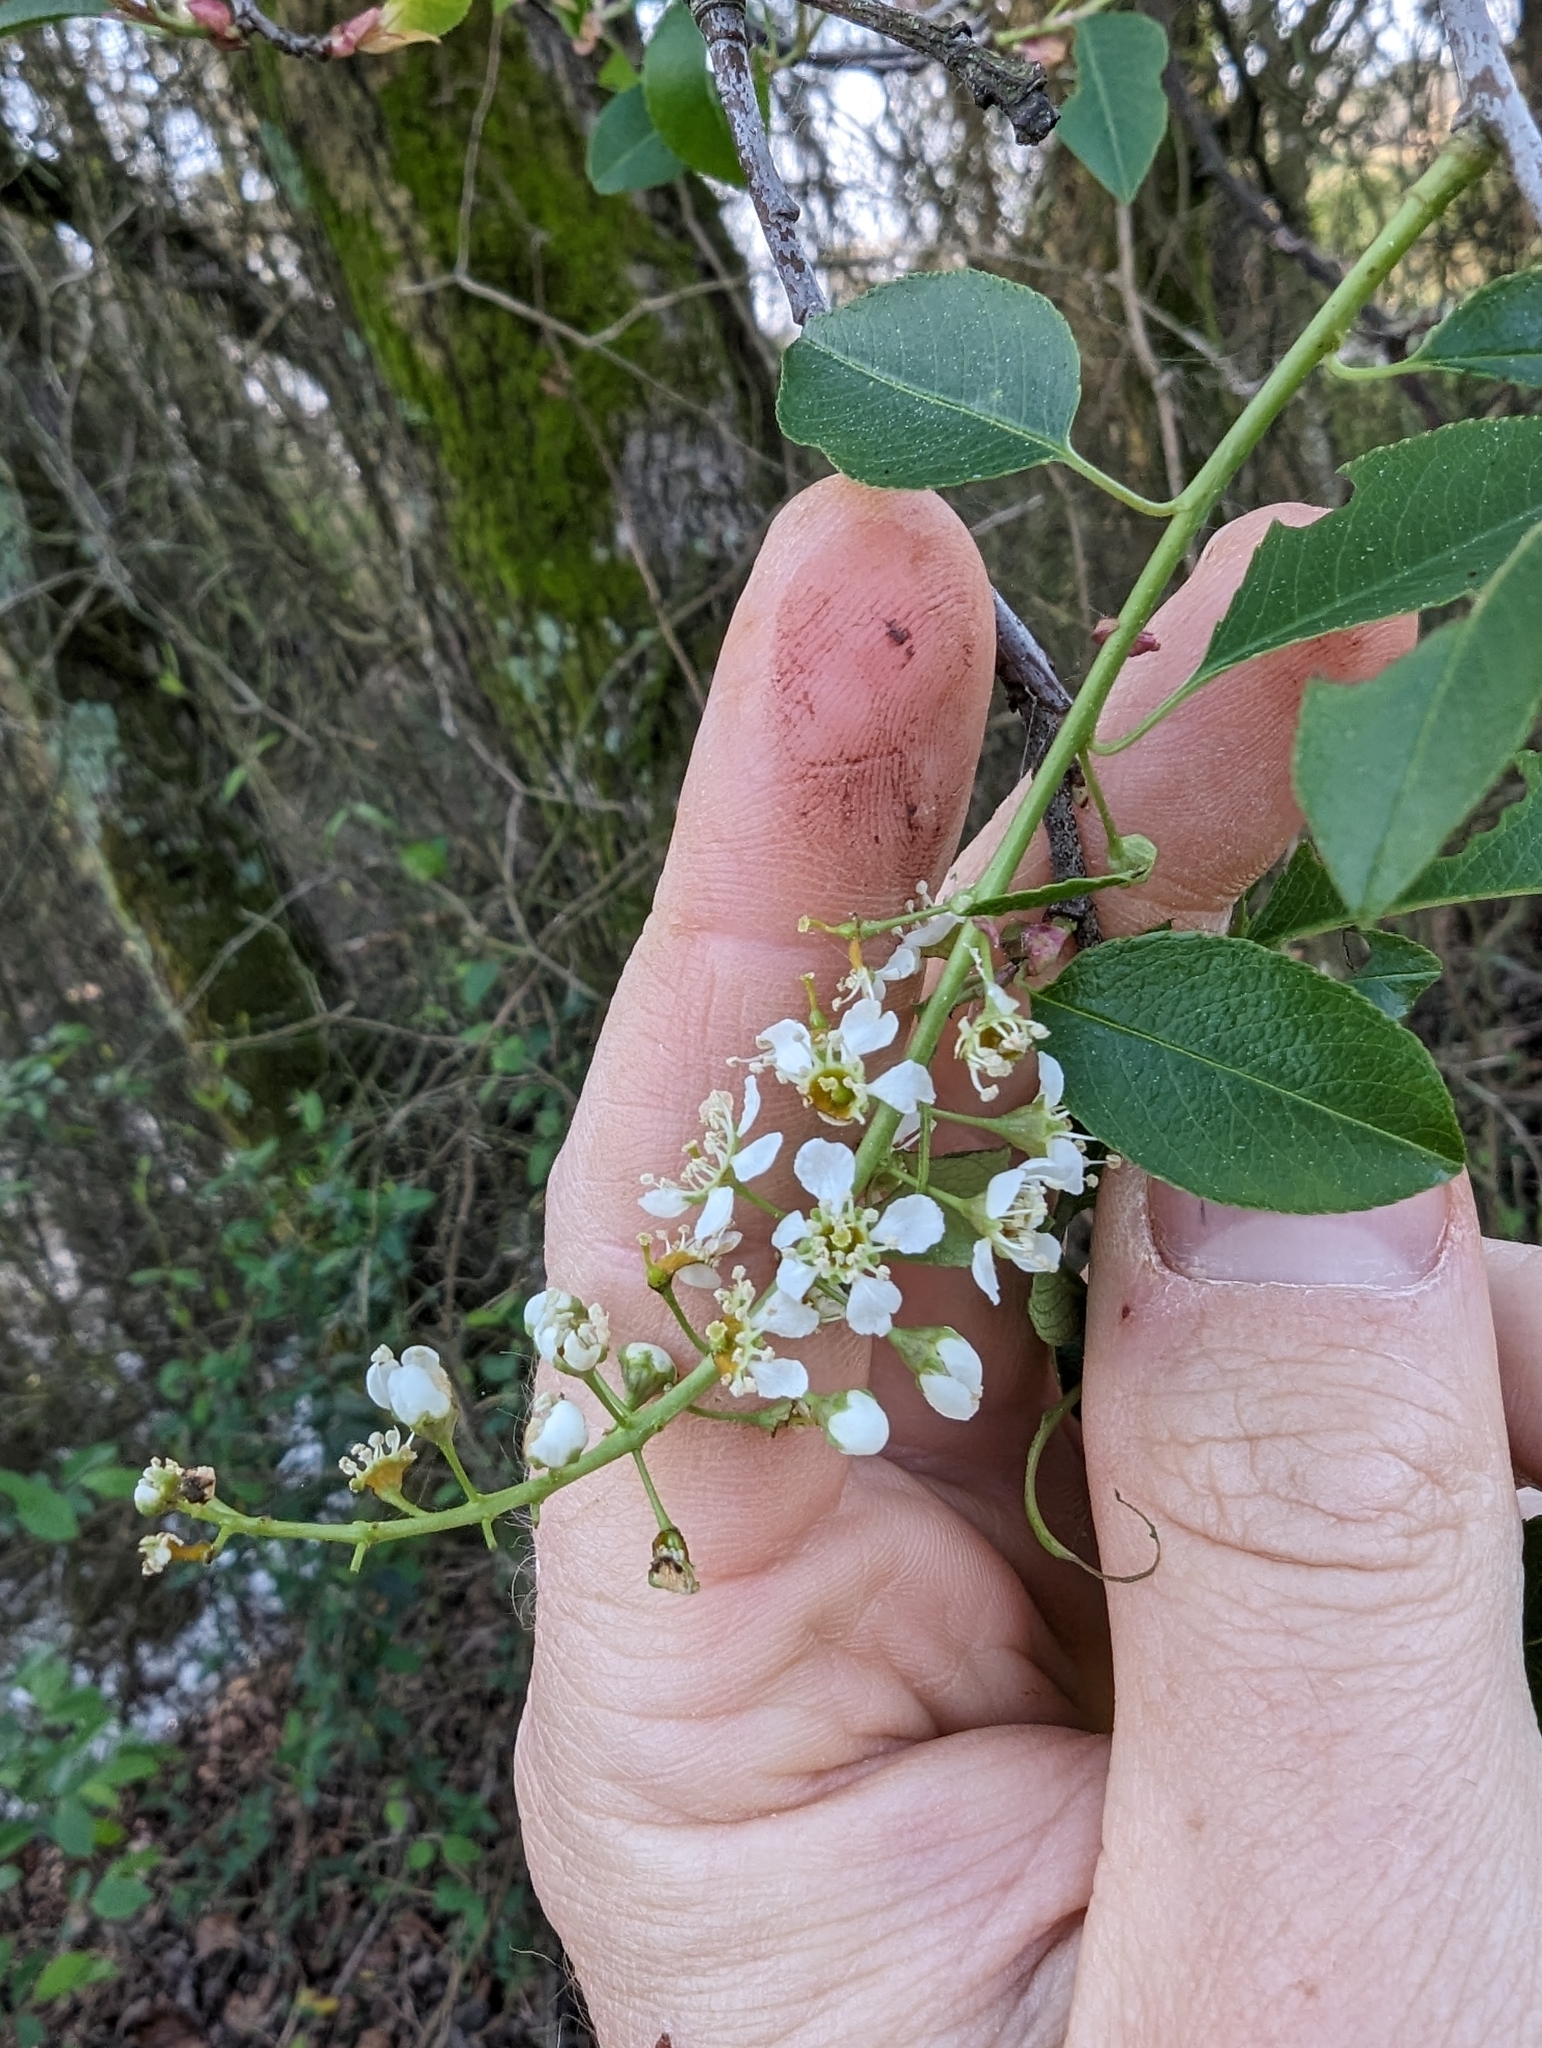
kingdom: Plantae
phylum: Tracheophyta
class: Magnoliopsida
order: Rosales
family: Rosaceae
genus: Prunus
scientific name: Prunus serotina
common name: Black cherry
